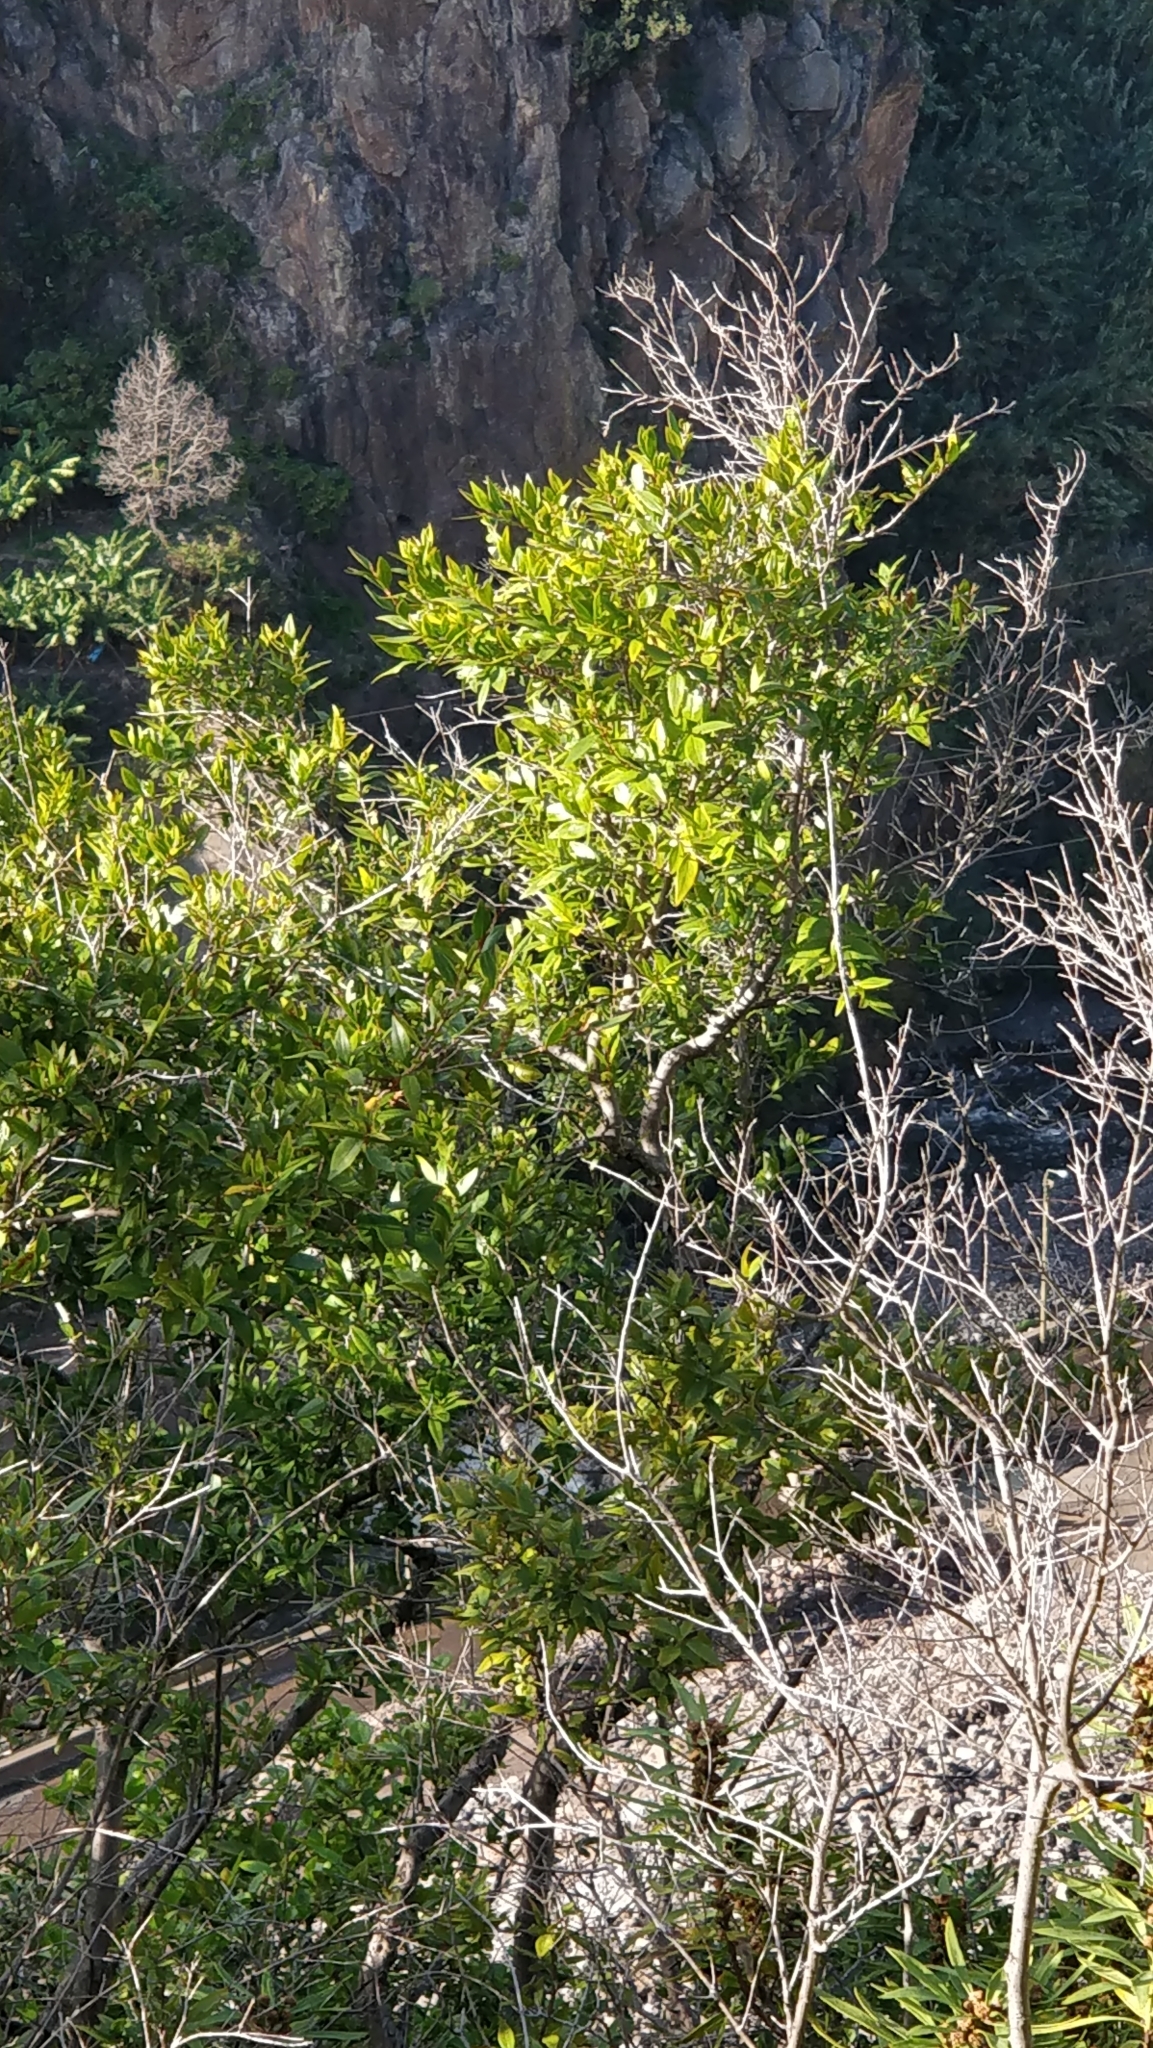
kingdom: Plantae
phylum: Tracheophyta
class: Magnoliopsida
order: Myrtales
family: Myrtaceae
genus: Myrtus
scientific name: Myrtus communis
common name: Myrtle
